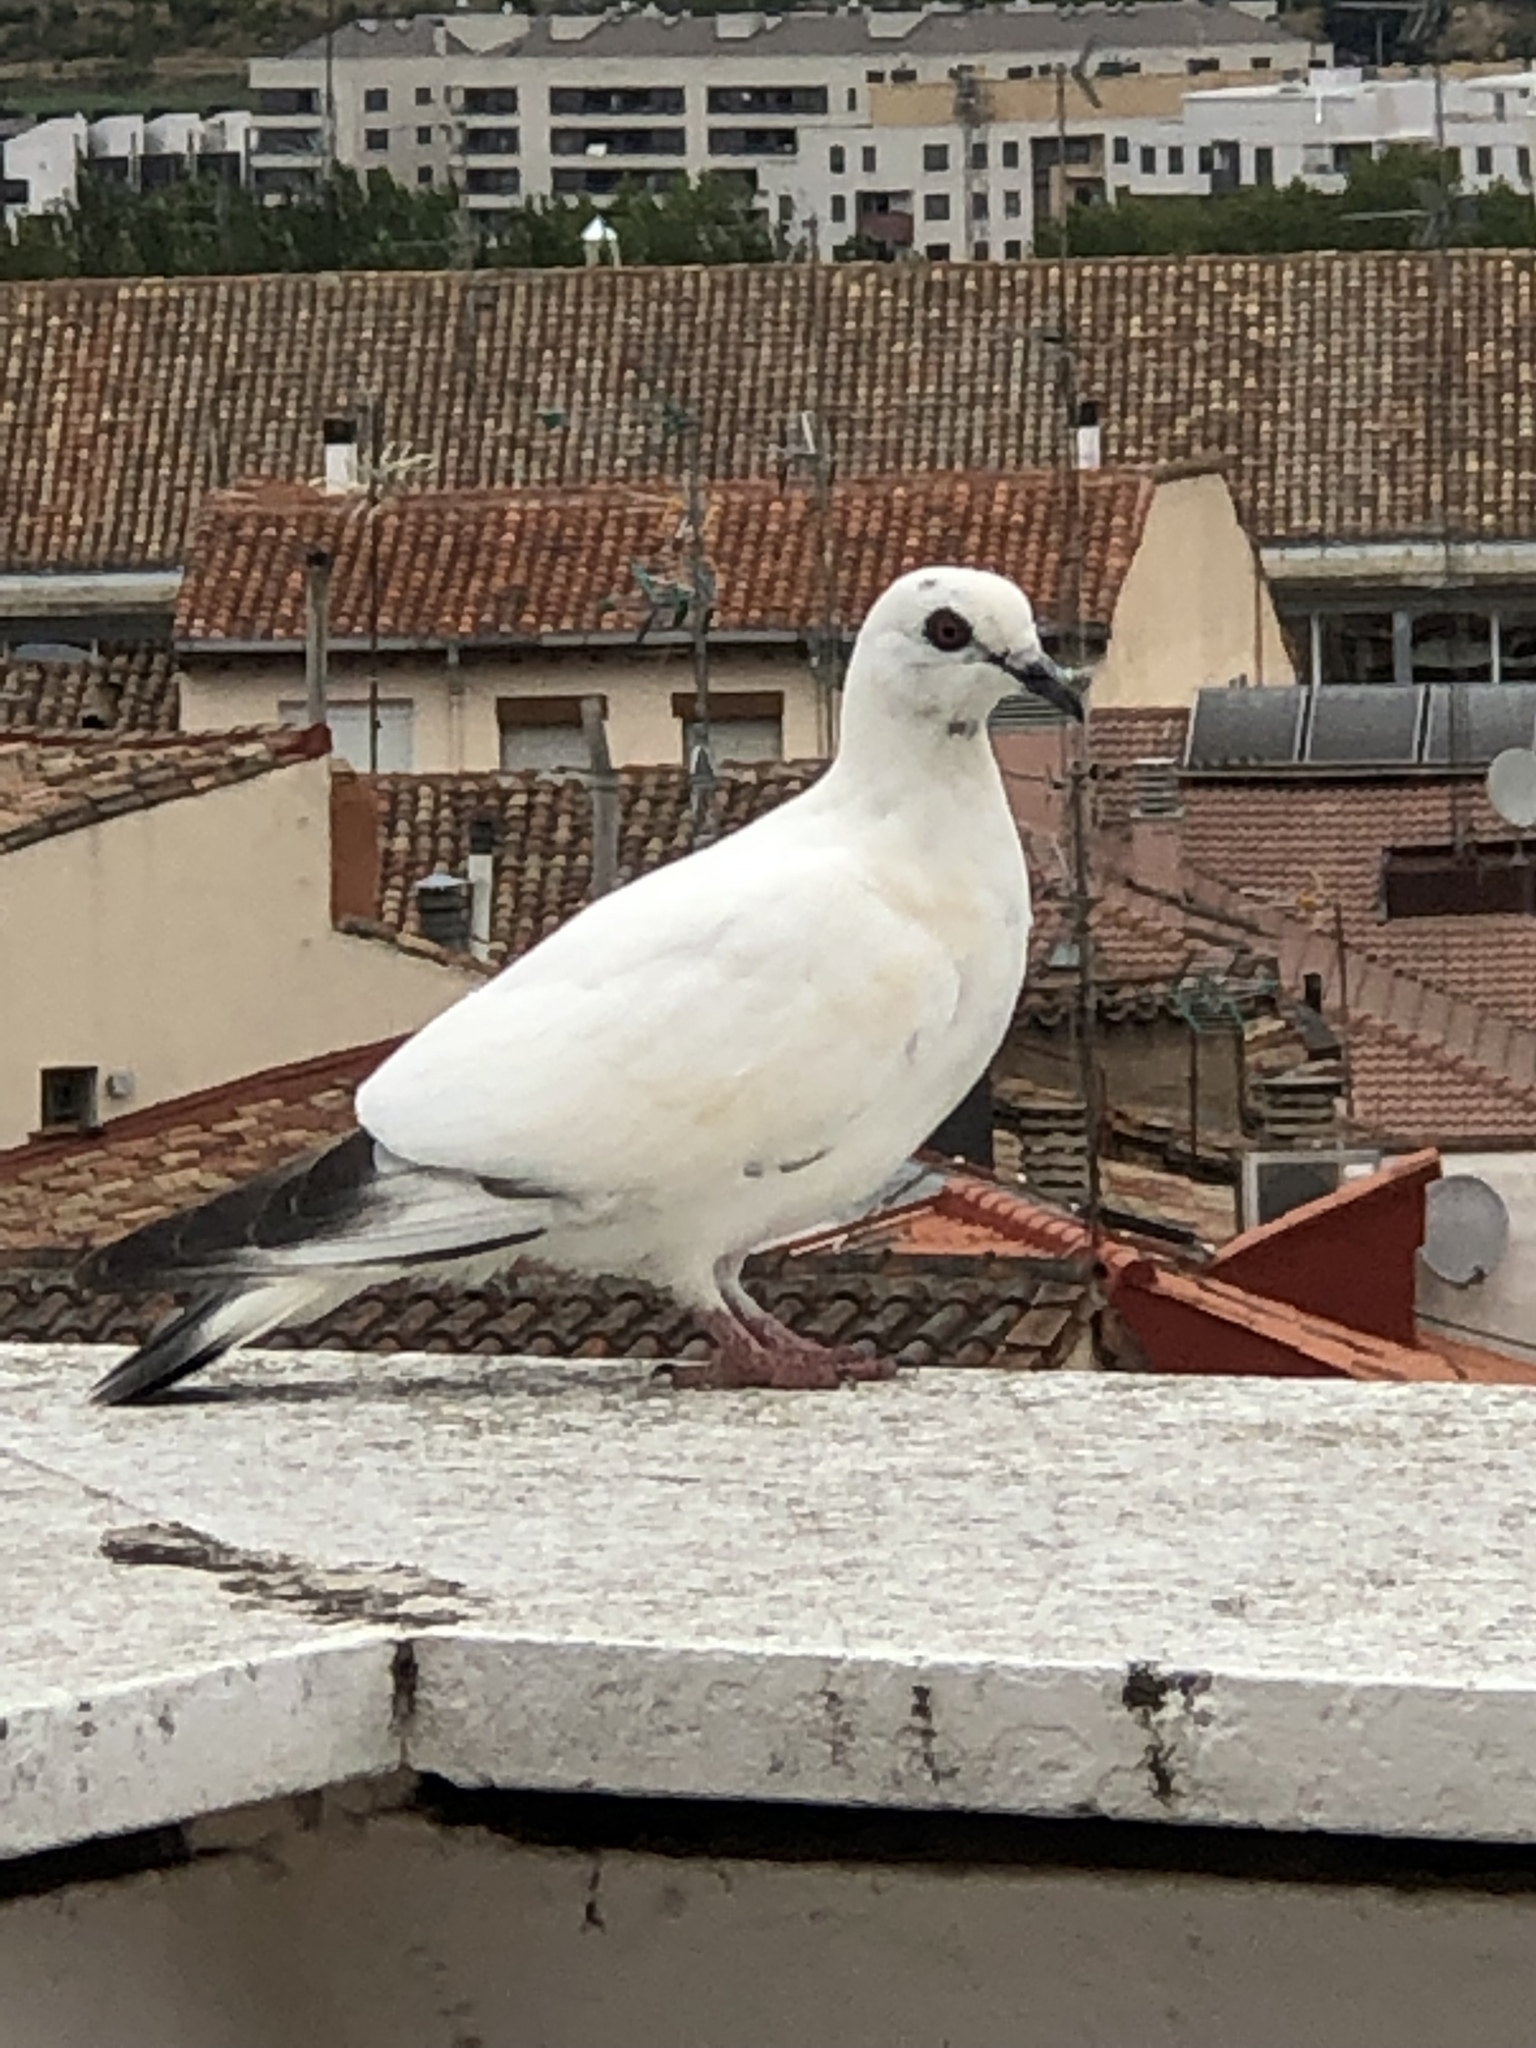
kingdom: Animalia
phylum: Chordata
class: Aves
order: Columbiformes
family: Columbidae
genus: Columba
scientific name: Columba livia
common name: Rock pigeon
